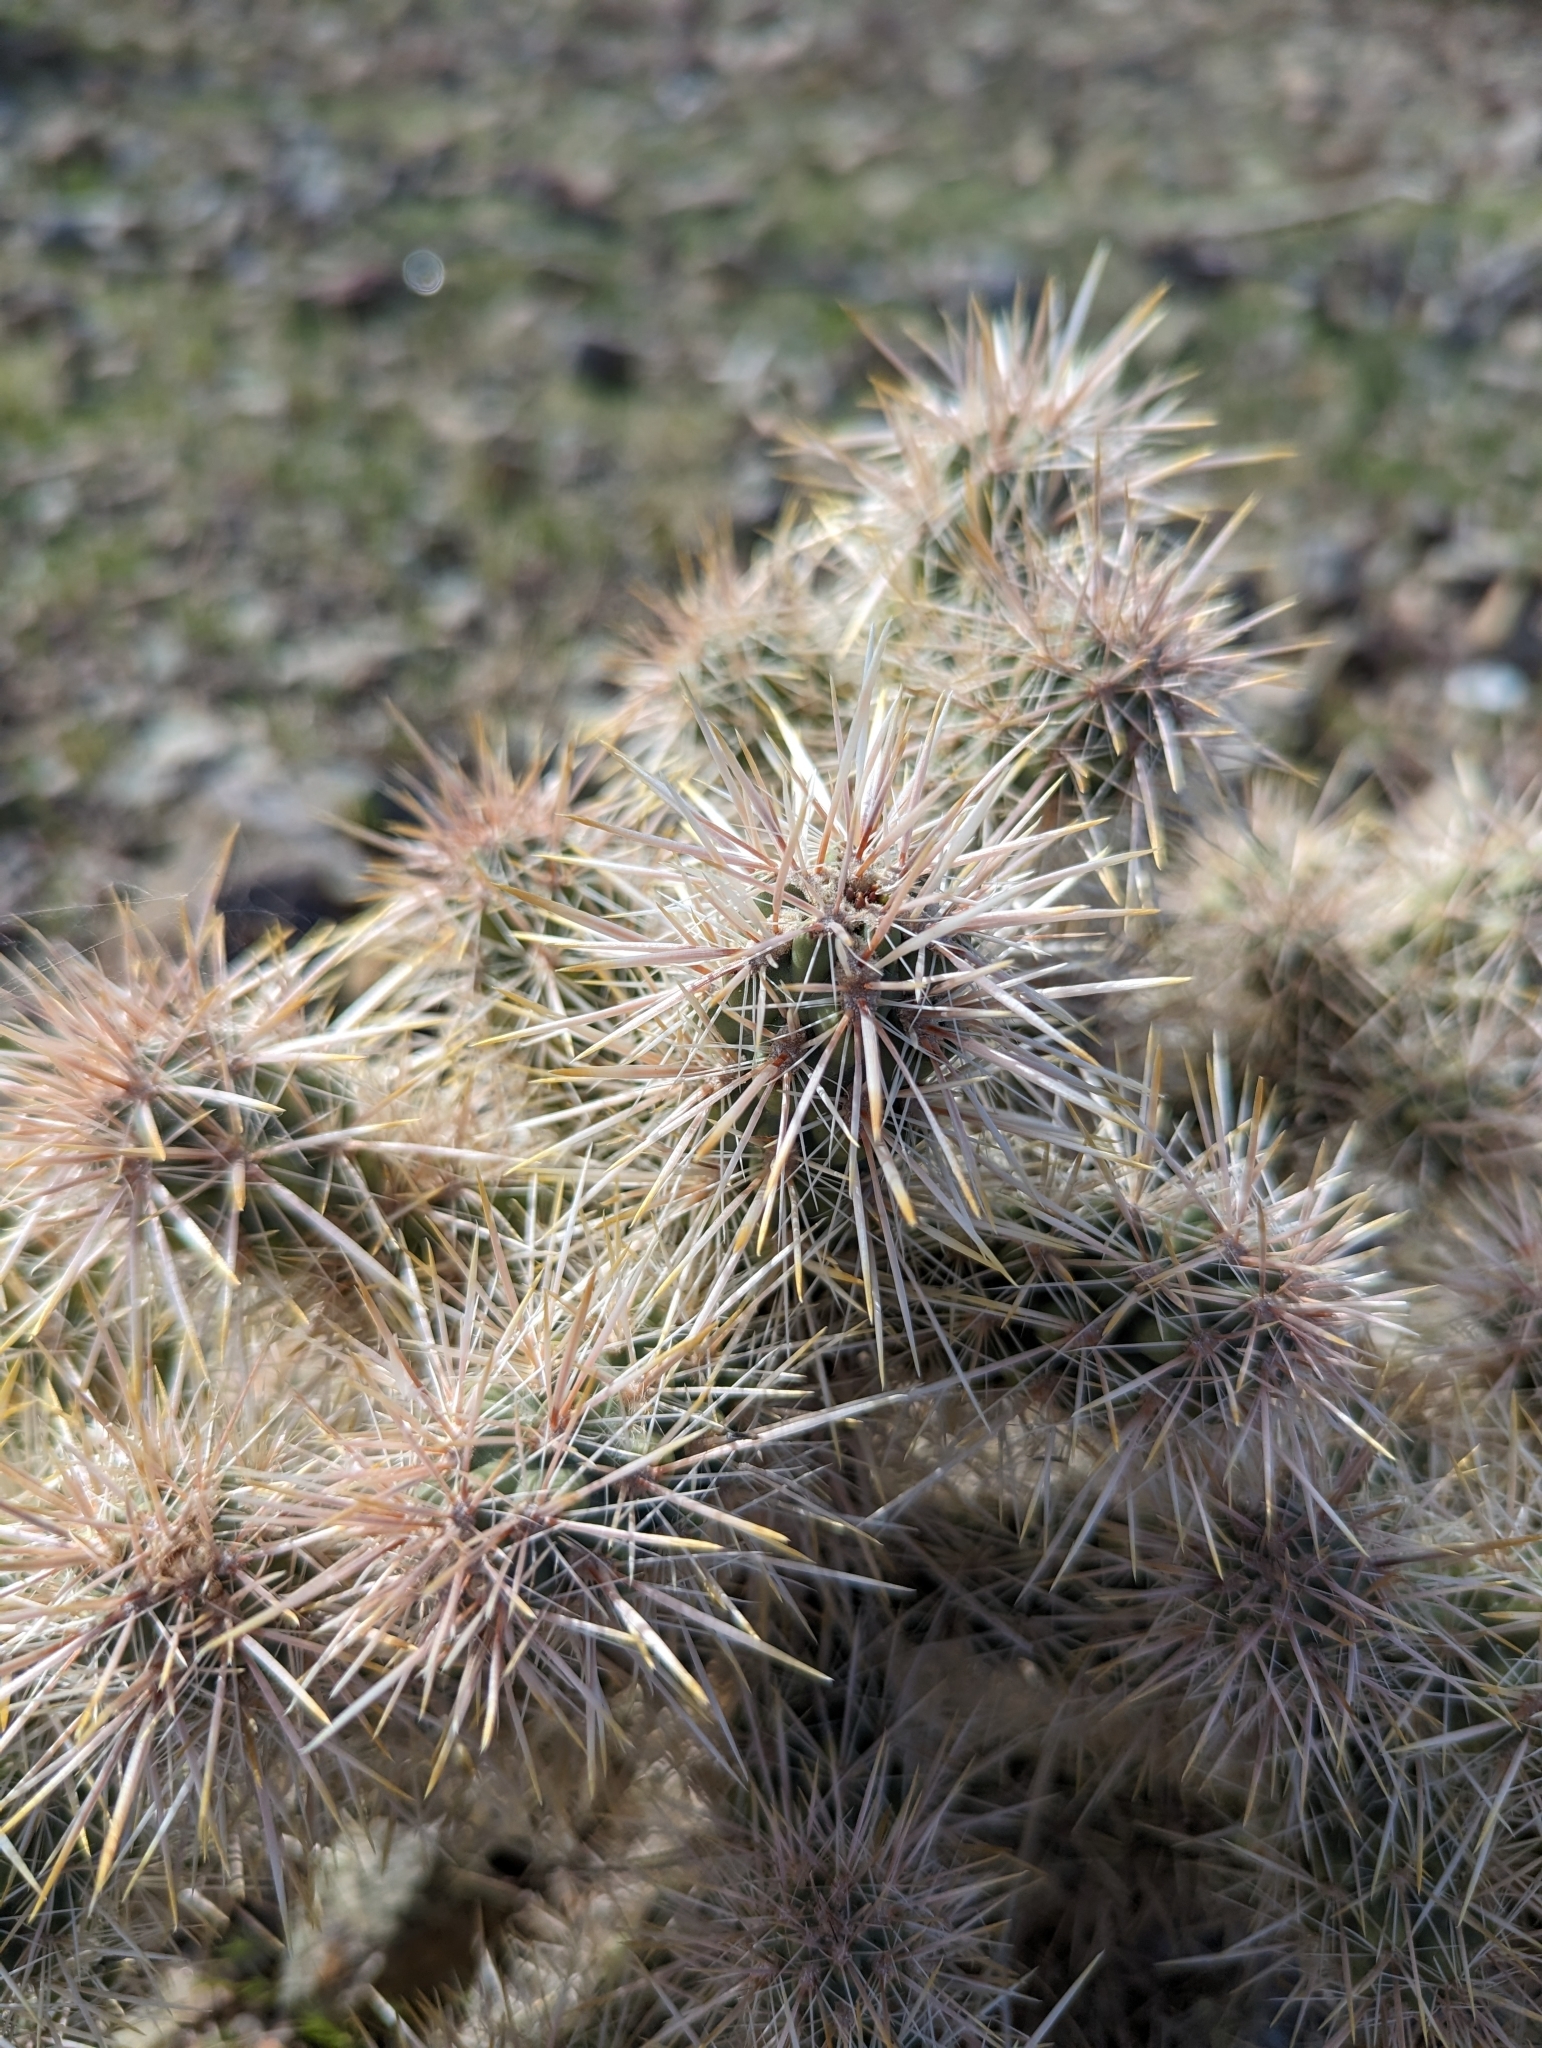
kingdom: Plantae
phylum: Tracheophyta
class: Magnoliopsida
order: Caryophyllales
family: Cactaceae
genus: Cylindropuntia
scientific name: Cylindropuntia echinocarpa
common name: Ground cholla
